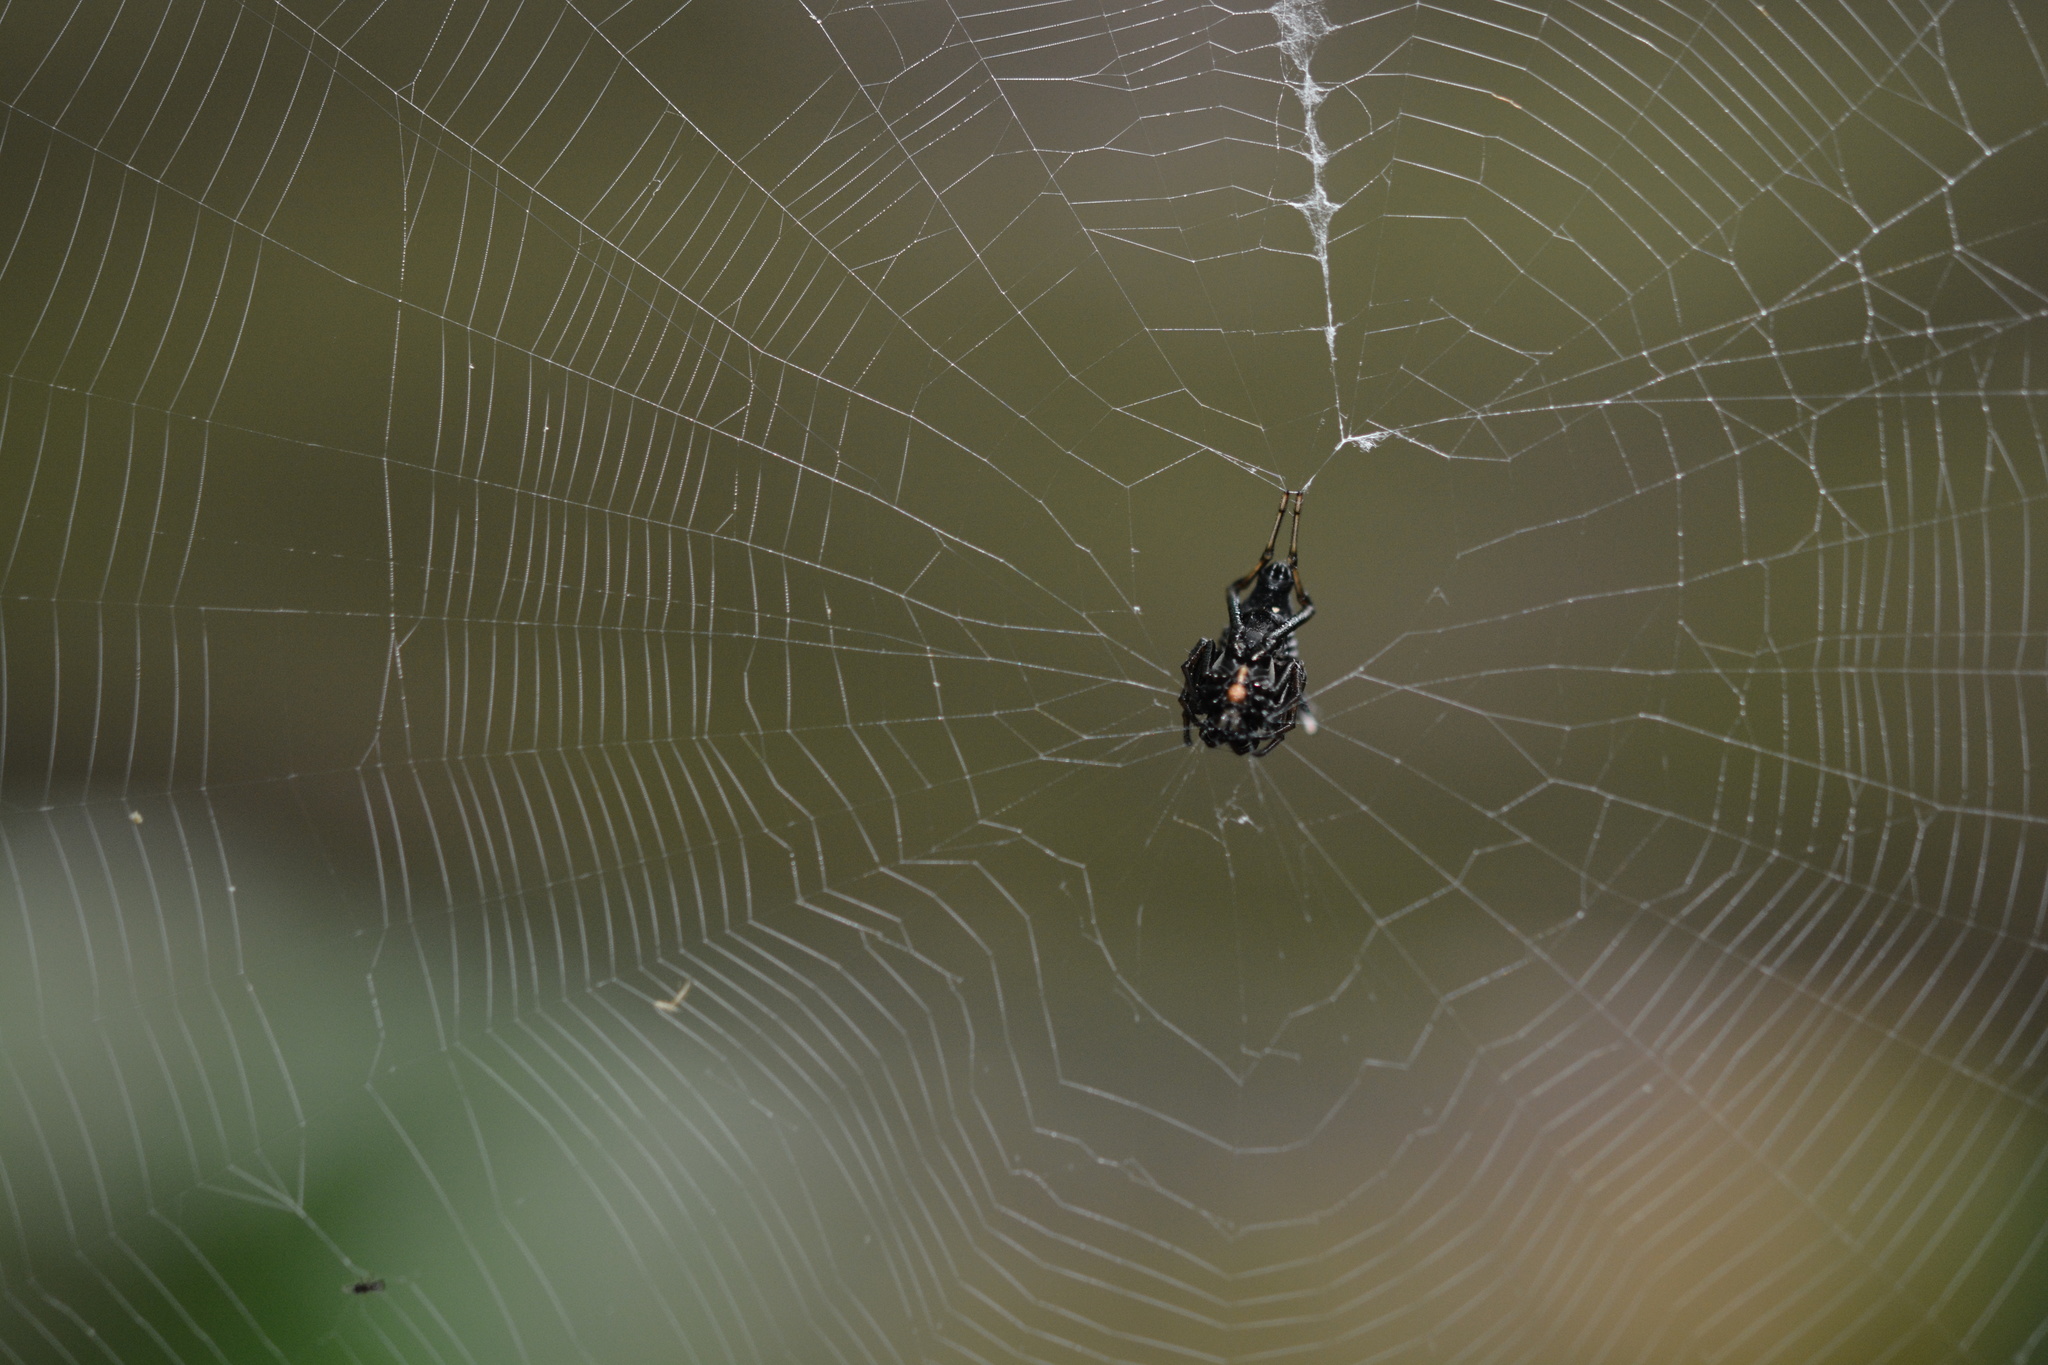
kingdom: Animalia
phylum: Arthropoda
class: Arachnida
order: Araneae
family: Araneidae
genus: Micrathena
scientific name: Micrathena gracilis
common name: Orb weavers
